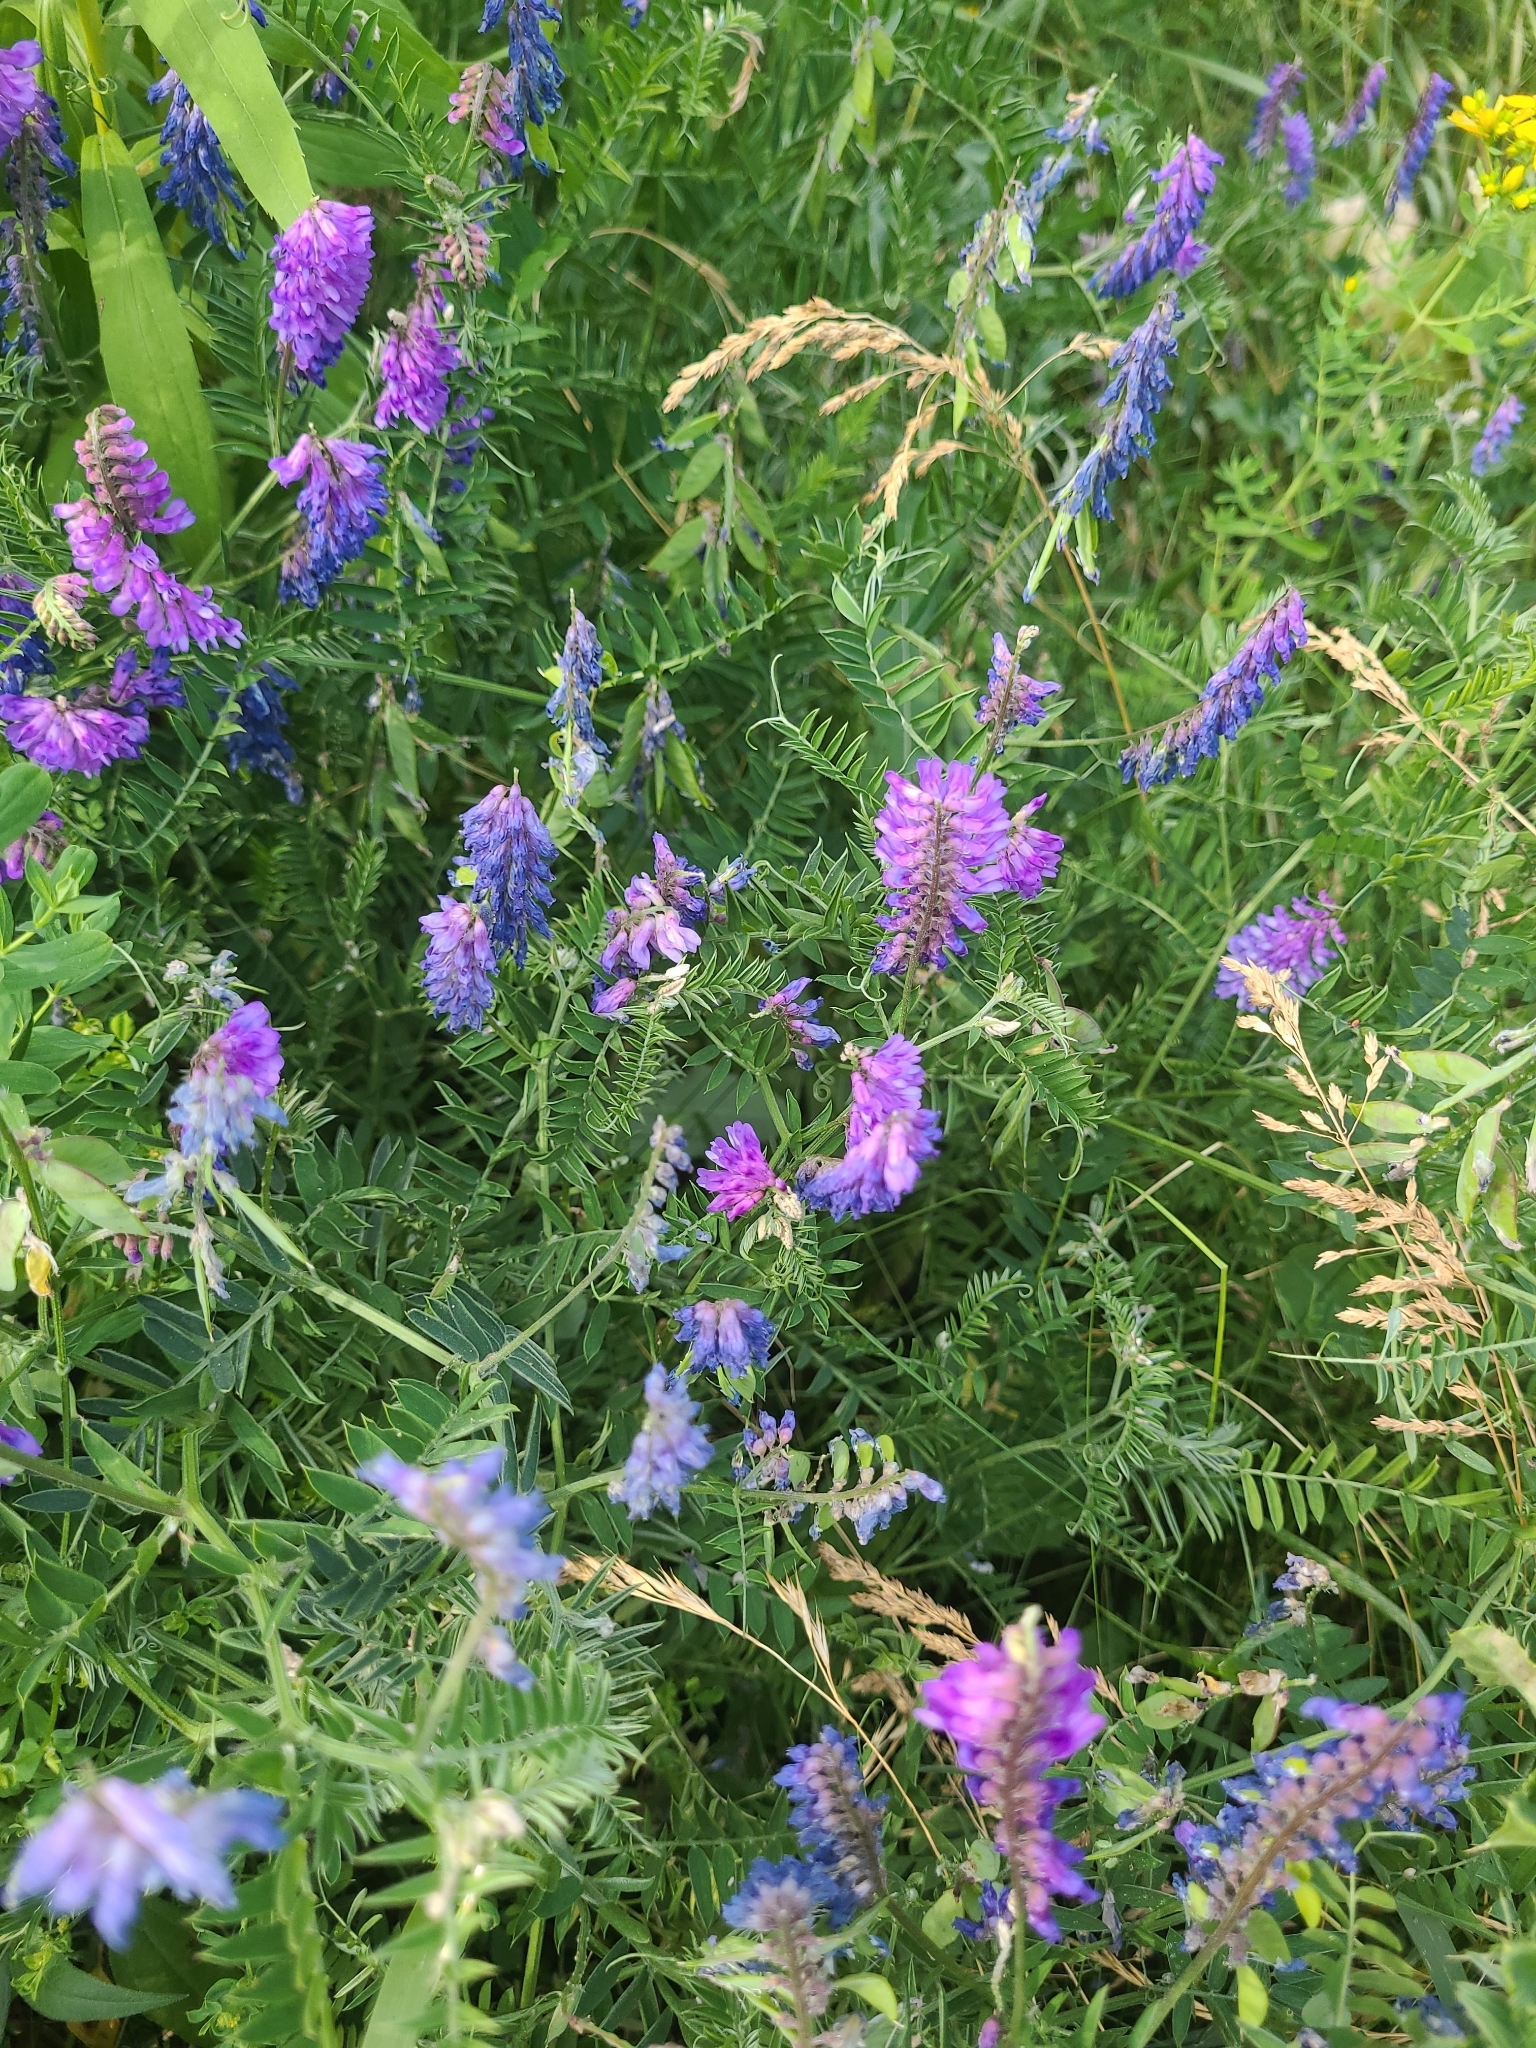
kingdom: Plantae
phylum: Tracheophyta
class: Magnoliopsida
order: Fabales
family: Fabaceae
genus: Vicia
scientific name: Vicia cracca
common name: Bird vetch
